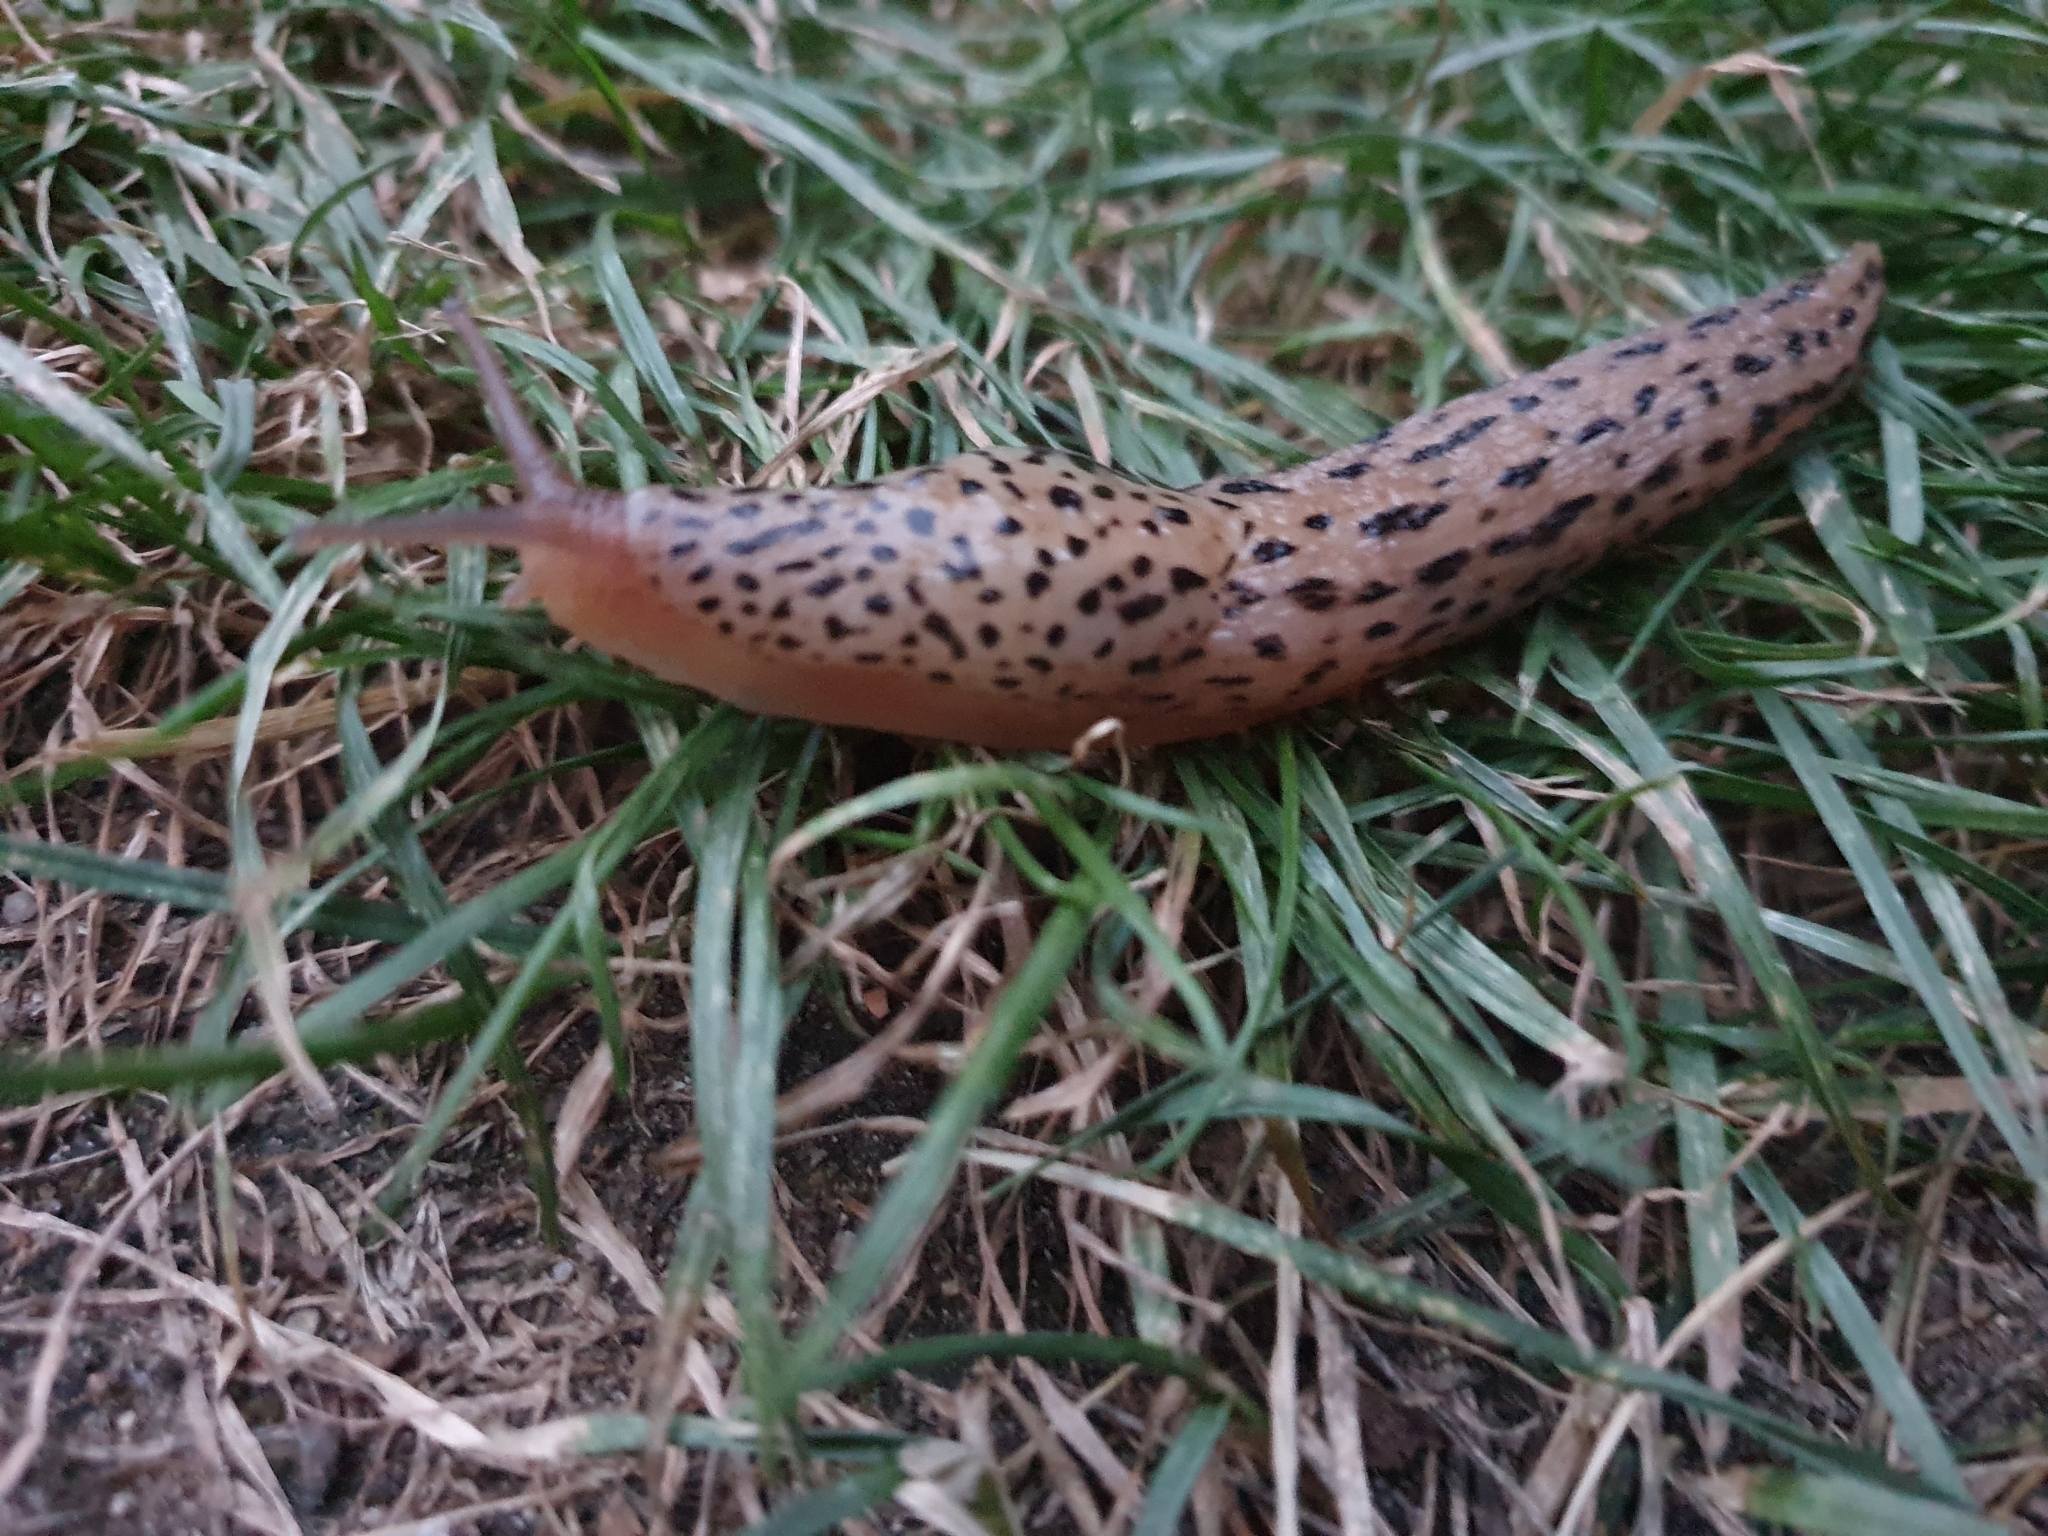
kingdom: Animalia
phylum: Mollusca
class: Gastropoda
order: Stylommatophora
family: Limacidae
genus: Limax
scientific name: Limax maximus
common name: Great grey slug
